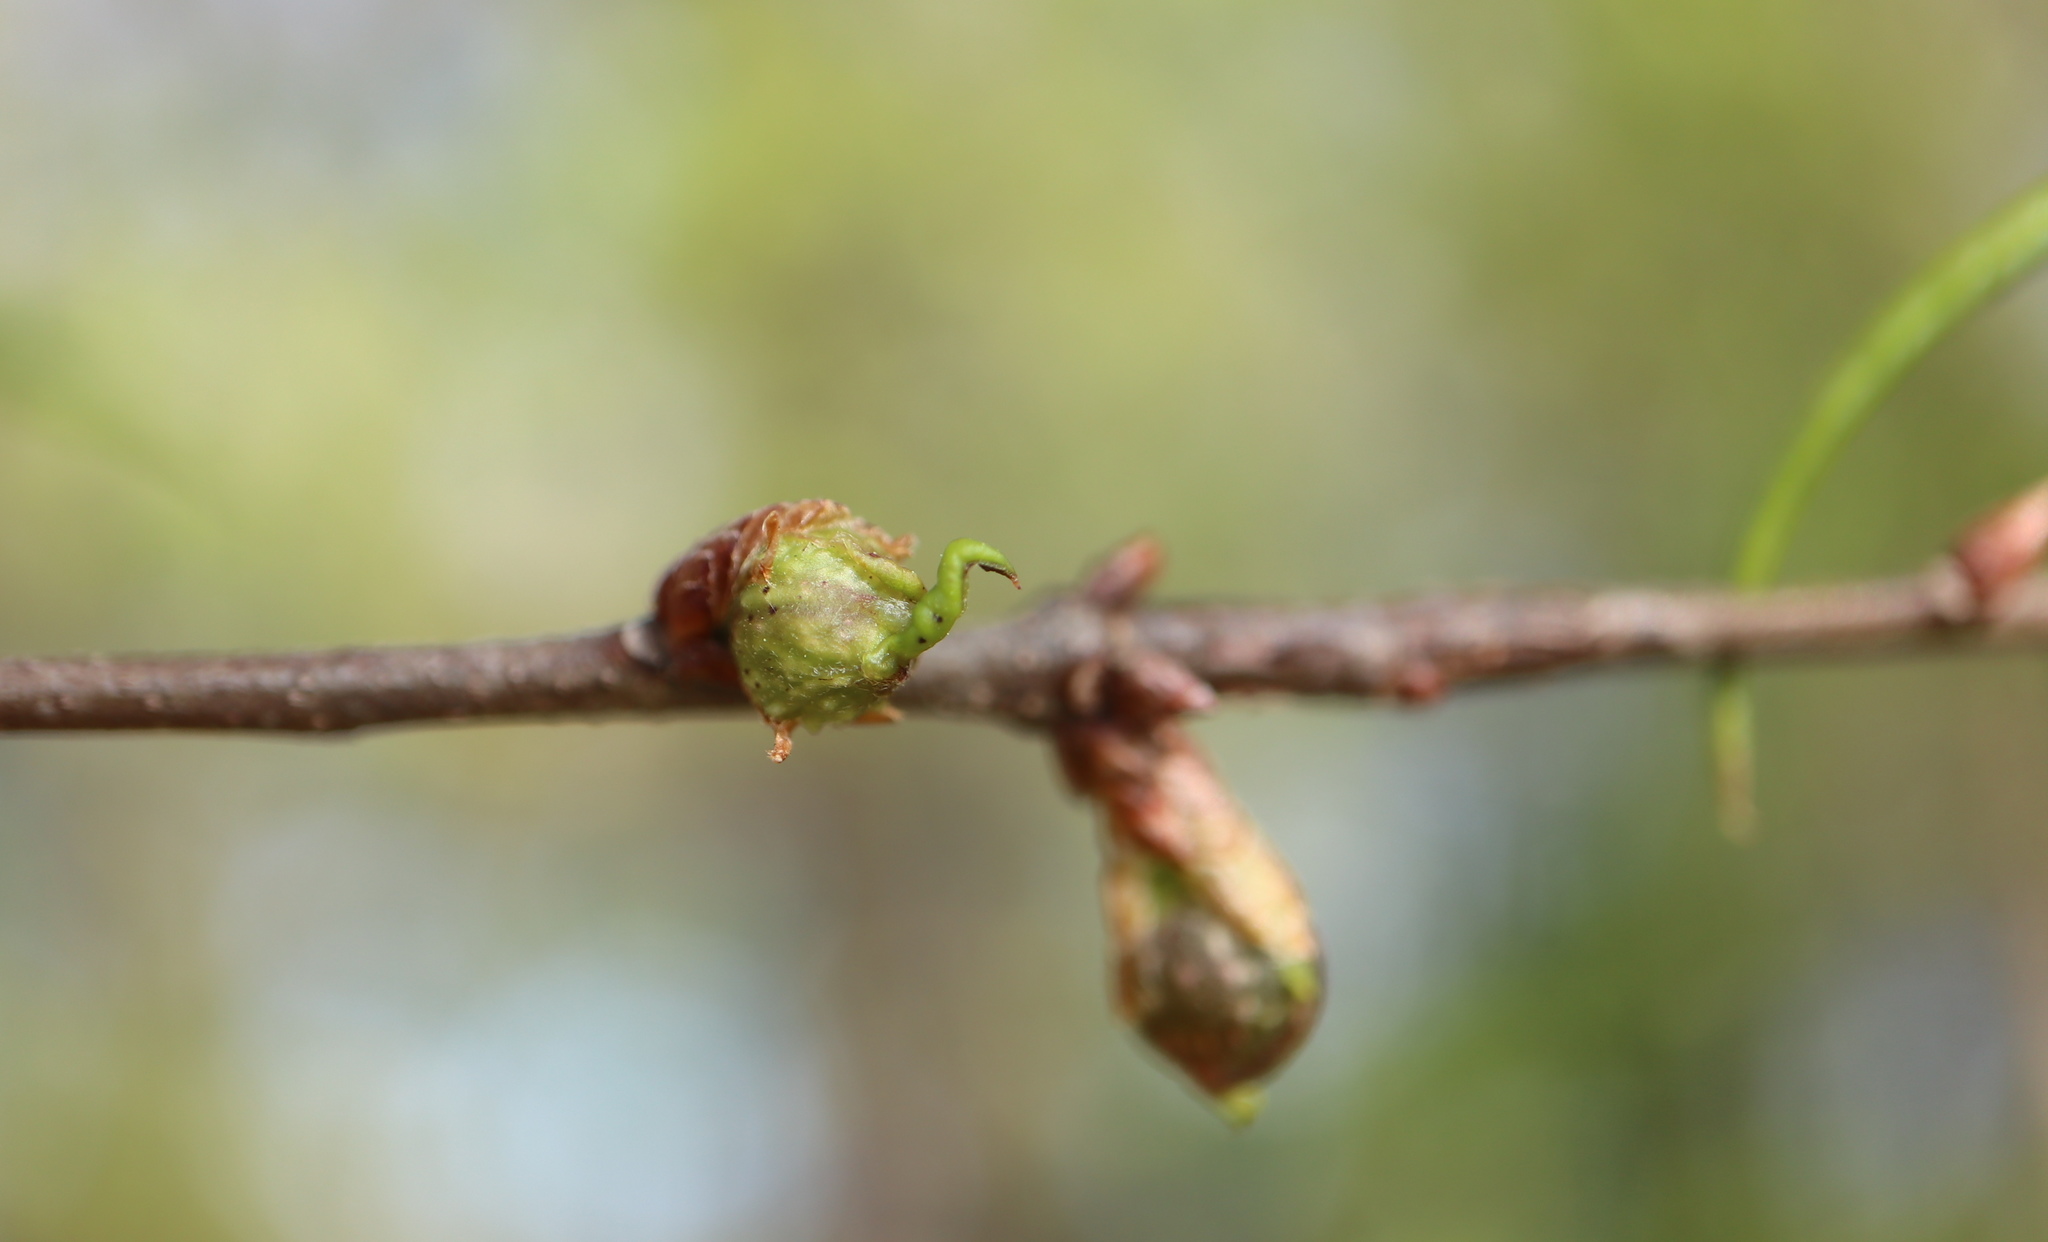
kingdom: Animalia
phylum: Arthropoda
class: Insecta
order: Hymenoptera
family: Cynipidae
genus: Dryocosmus
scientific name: Dryocosmus
